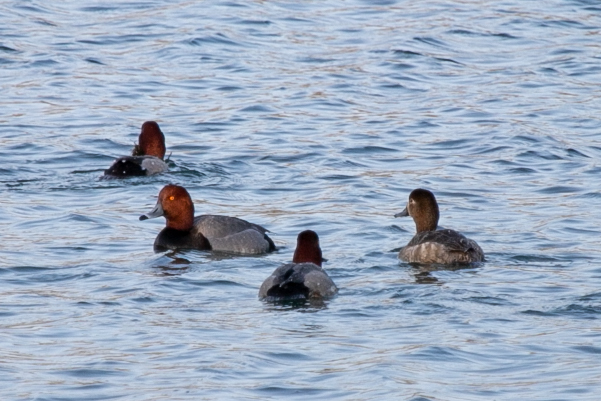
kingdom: Animalia
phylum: Chordata
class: Aves
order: Anseriformes
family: Anatidae
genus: Aythya
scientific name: Aythya americana
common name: Redhead
